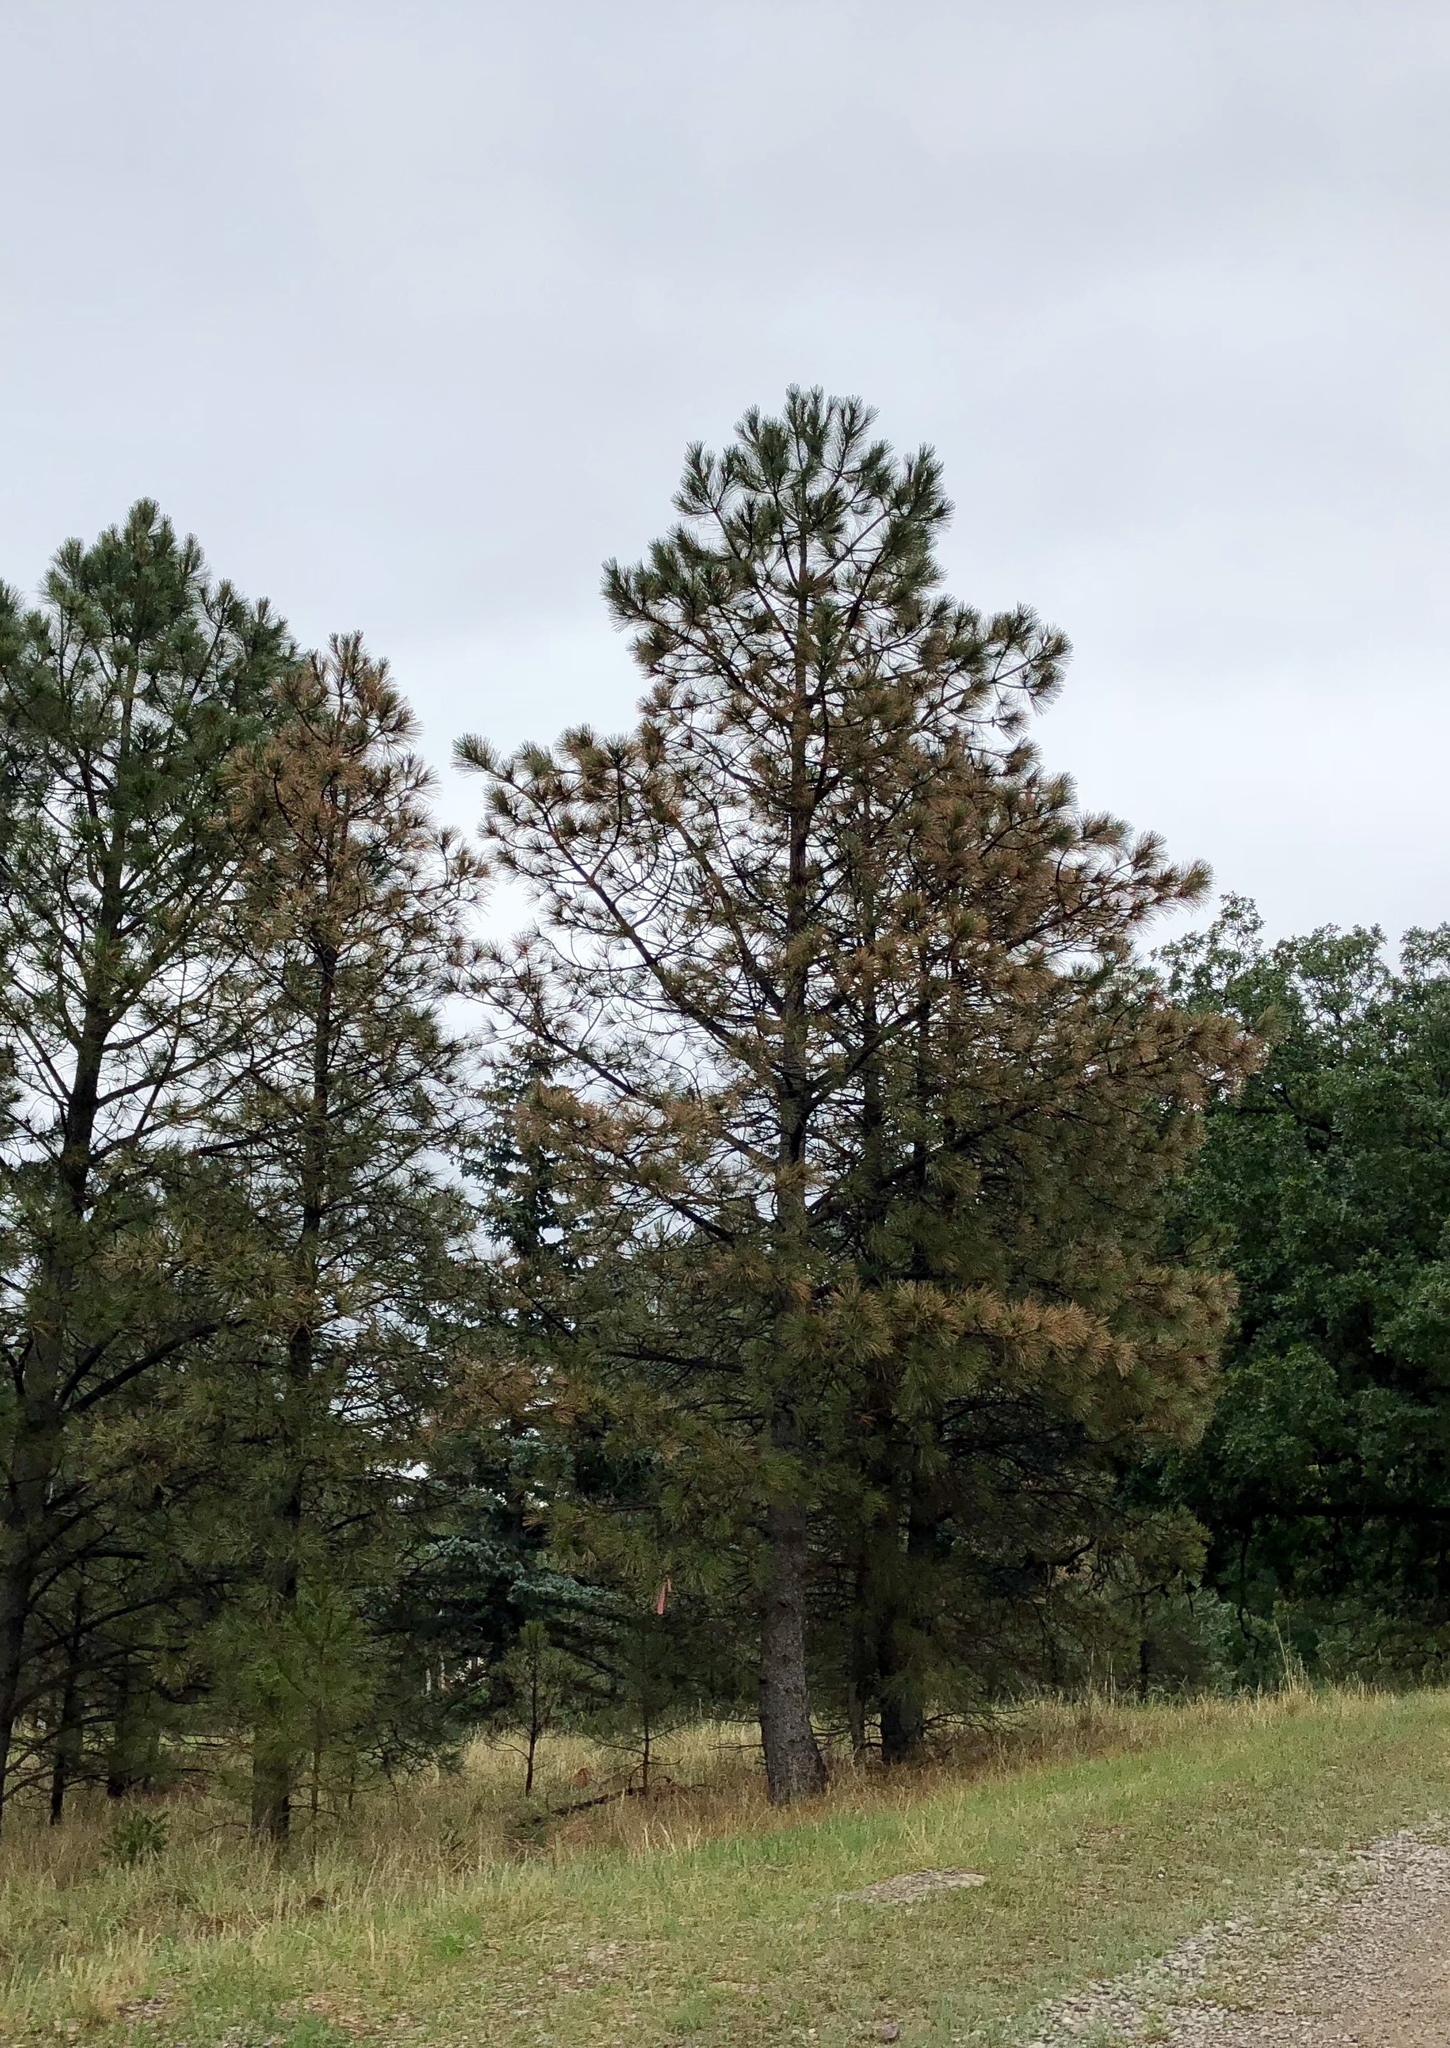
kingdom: Plantae
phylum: Tracheophyta
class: Pinopsida
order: Pinales
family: Pinaceae
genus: Pinus
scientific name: Pinus ponderosa
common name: Western yellow-pine
